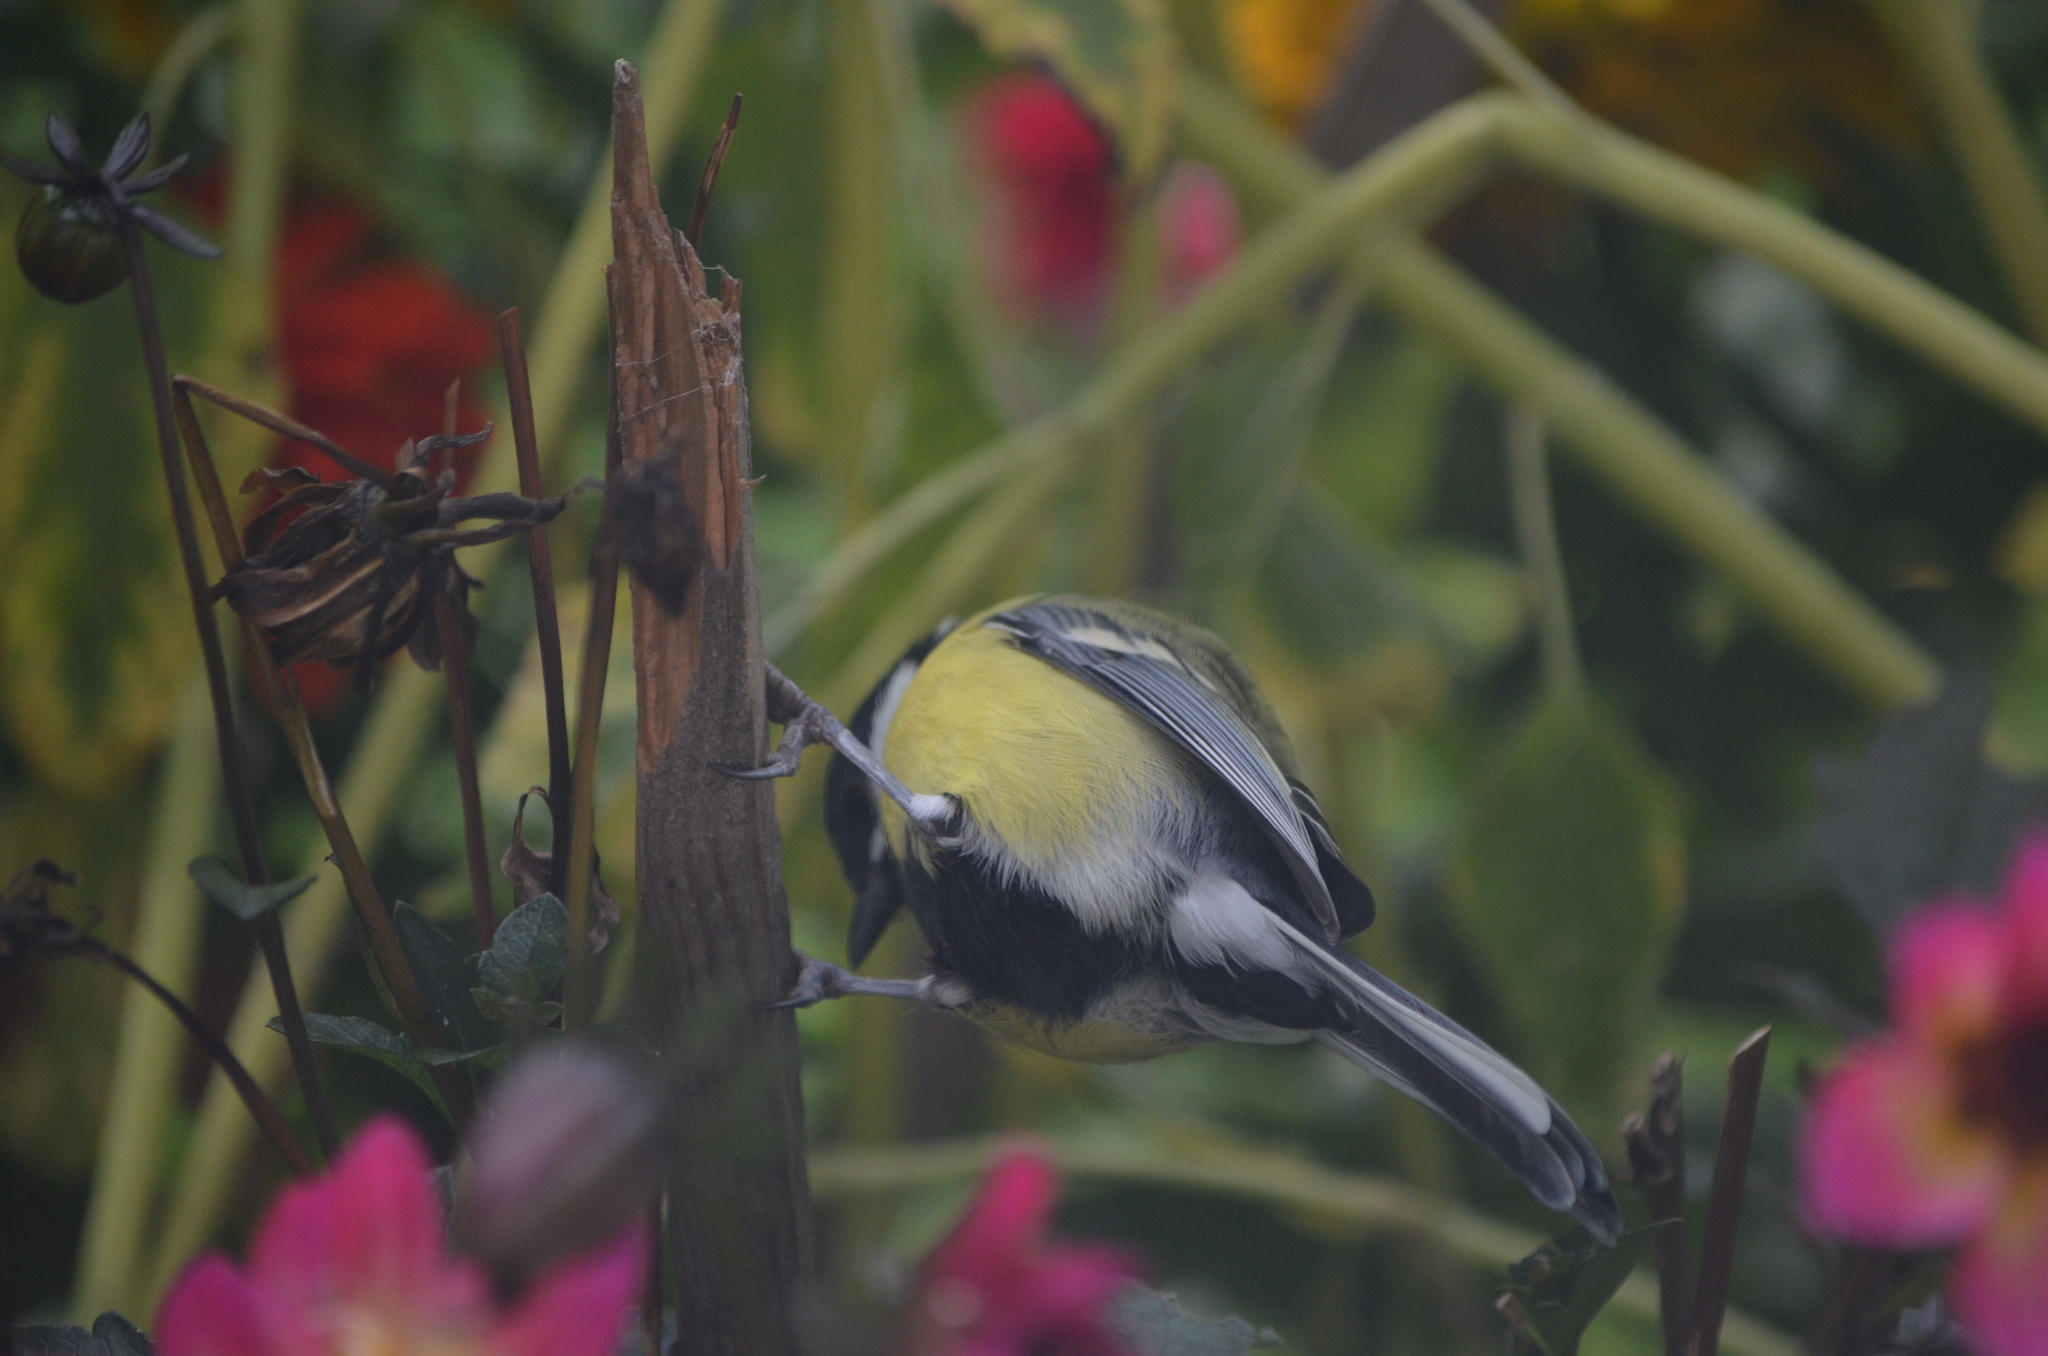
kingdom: Animalia
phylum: Chordata
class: Aves
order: Passeriformes
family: Paridae
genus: Parus
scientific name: Parus major
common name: Great tit
